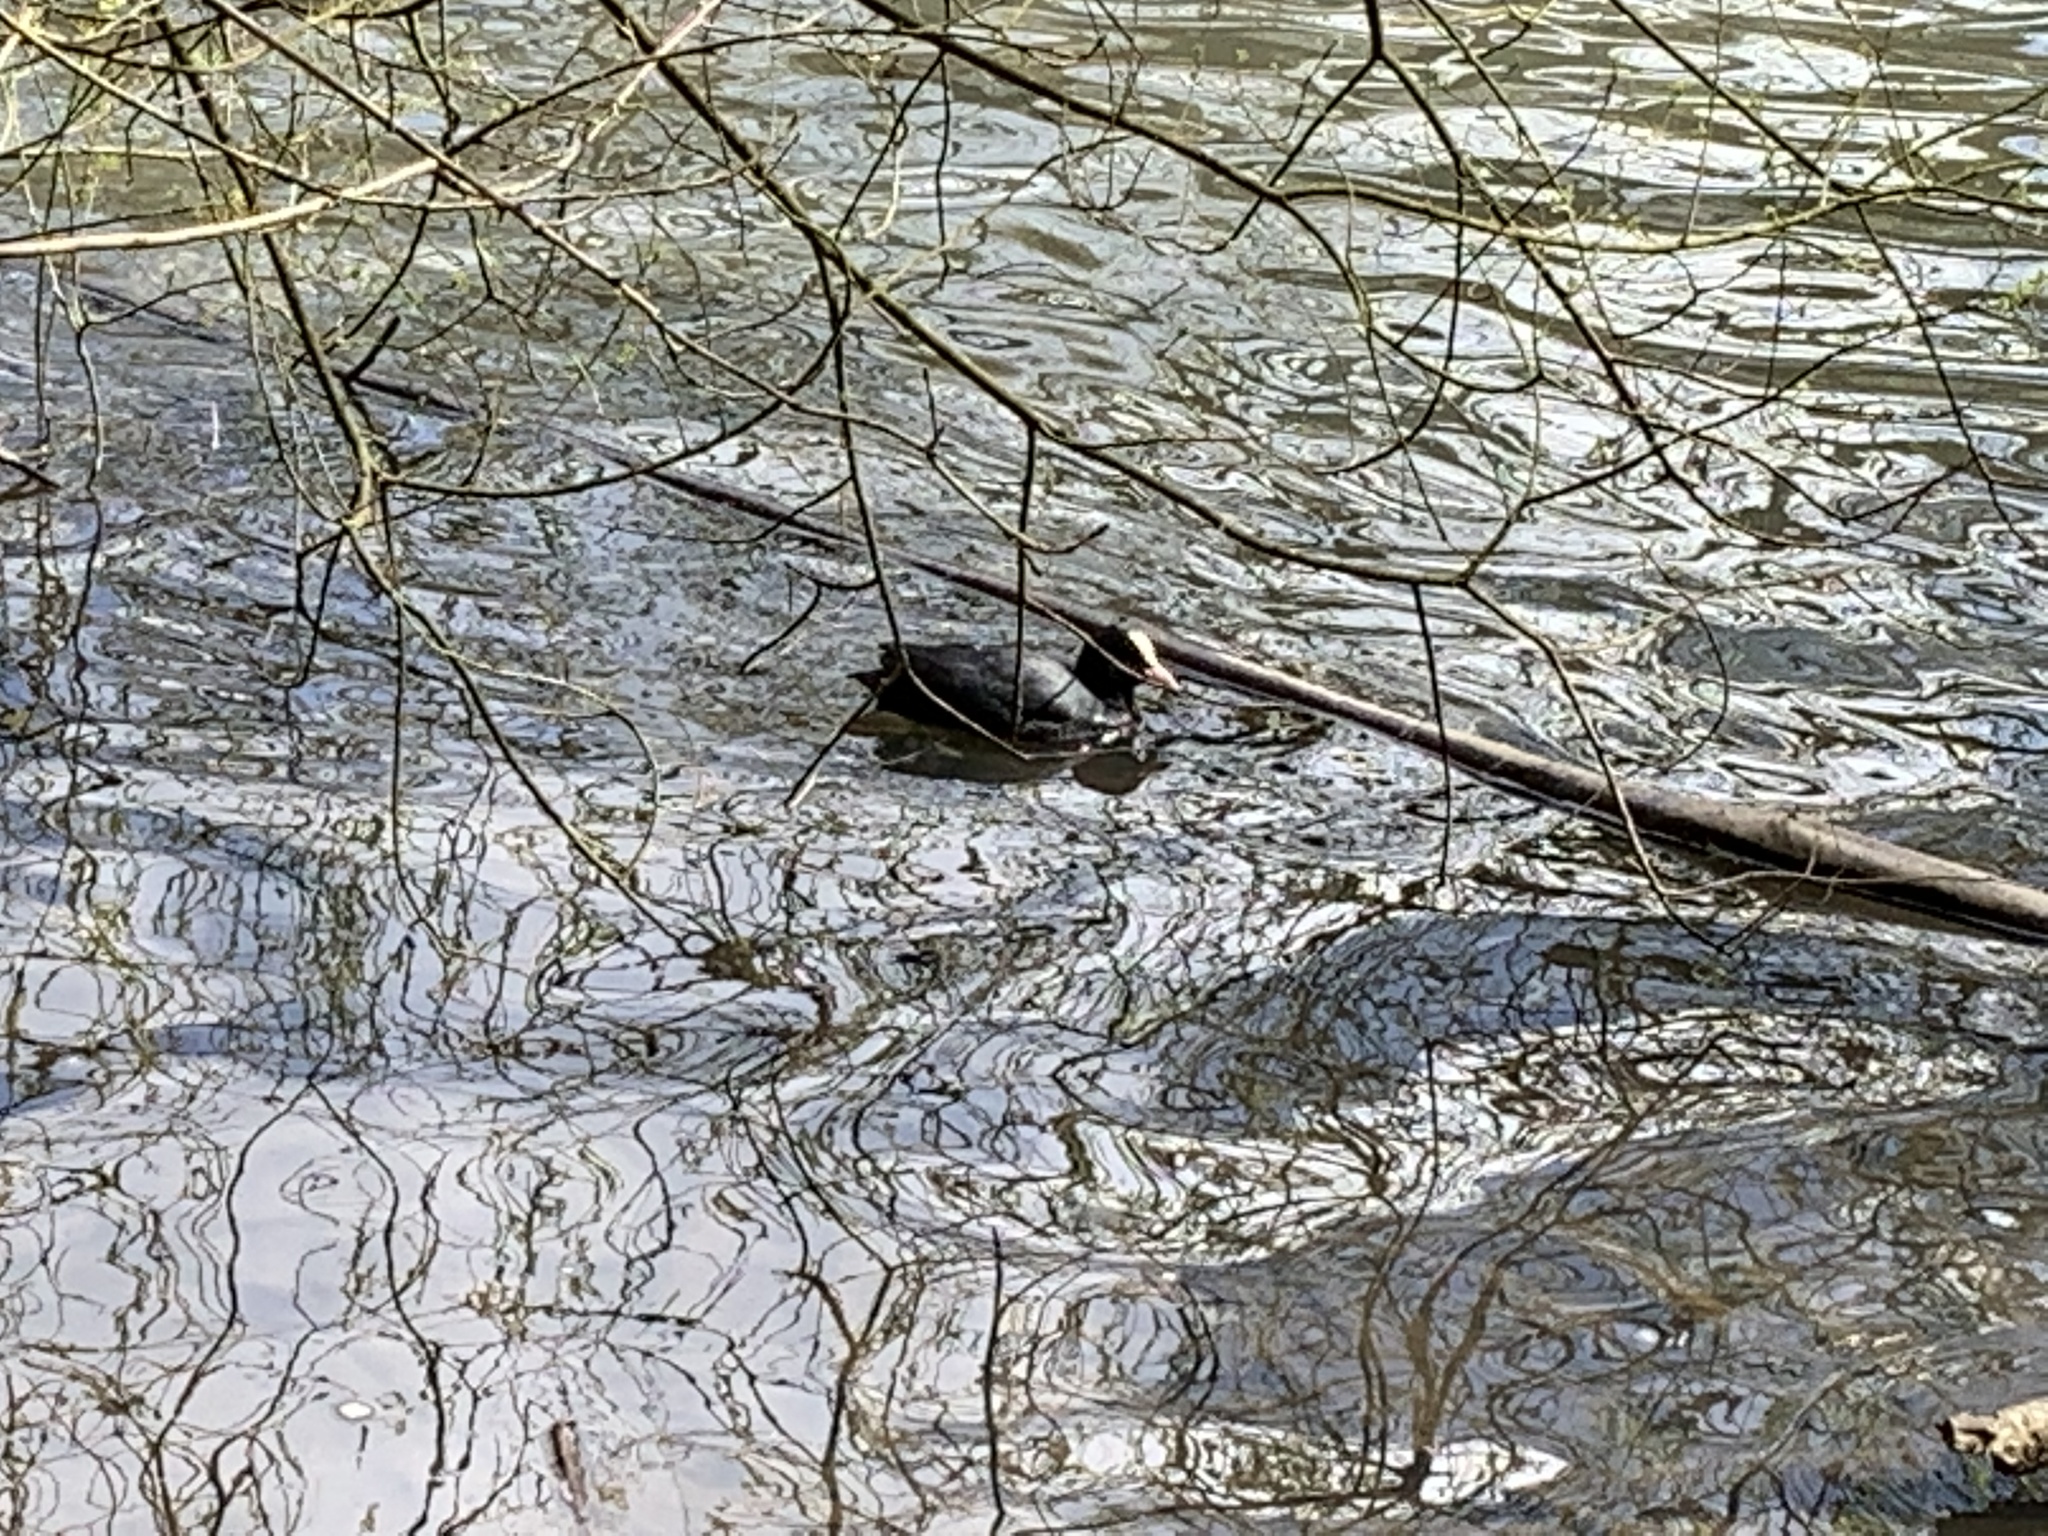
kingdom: Animalia
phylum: Chordata
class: Aves
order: Gruiformes
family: Rallidae
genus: Fulica
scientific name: Fulica atra
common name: Eurasian coot
